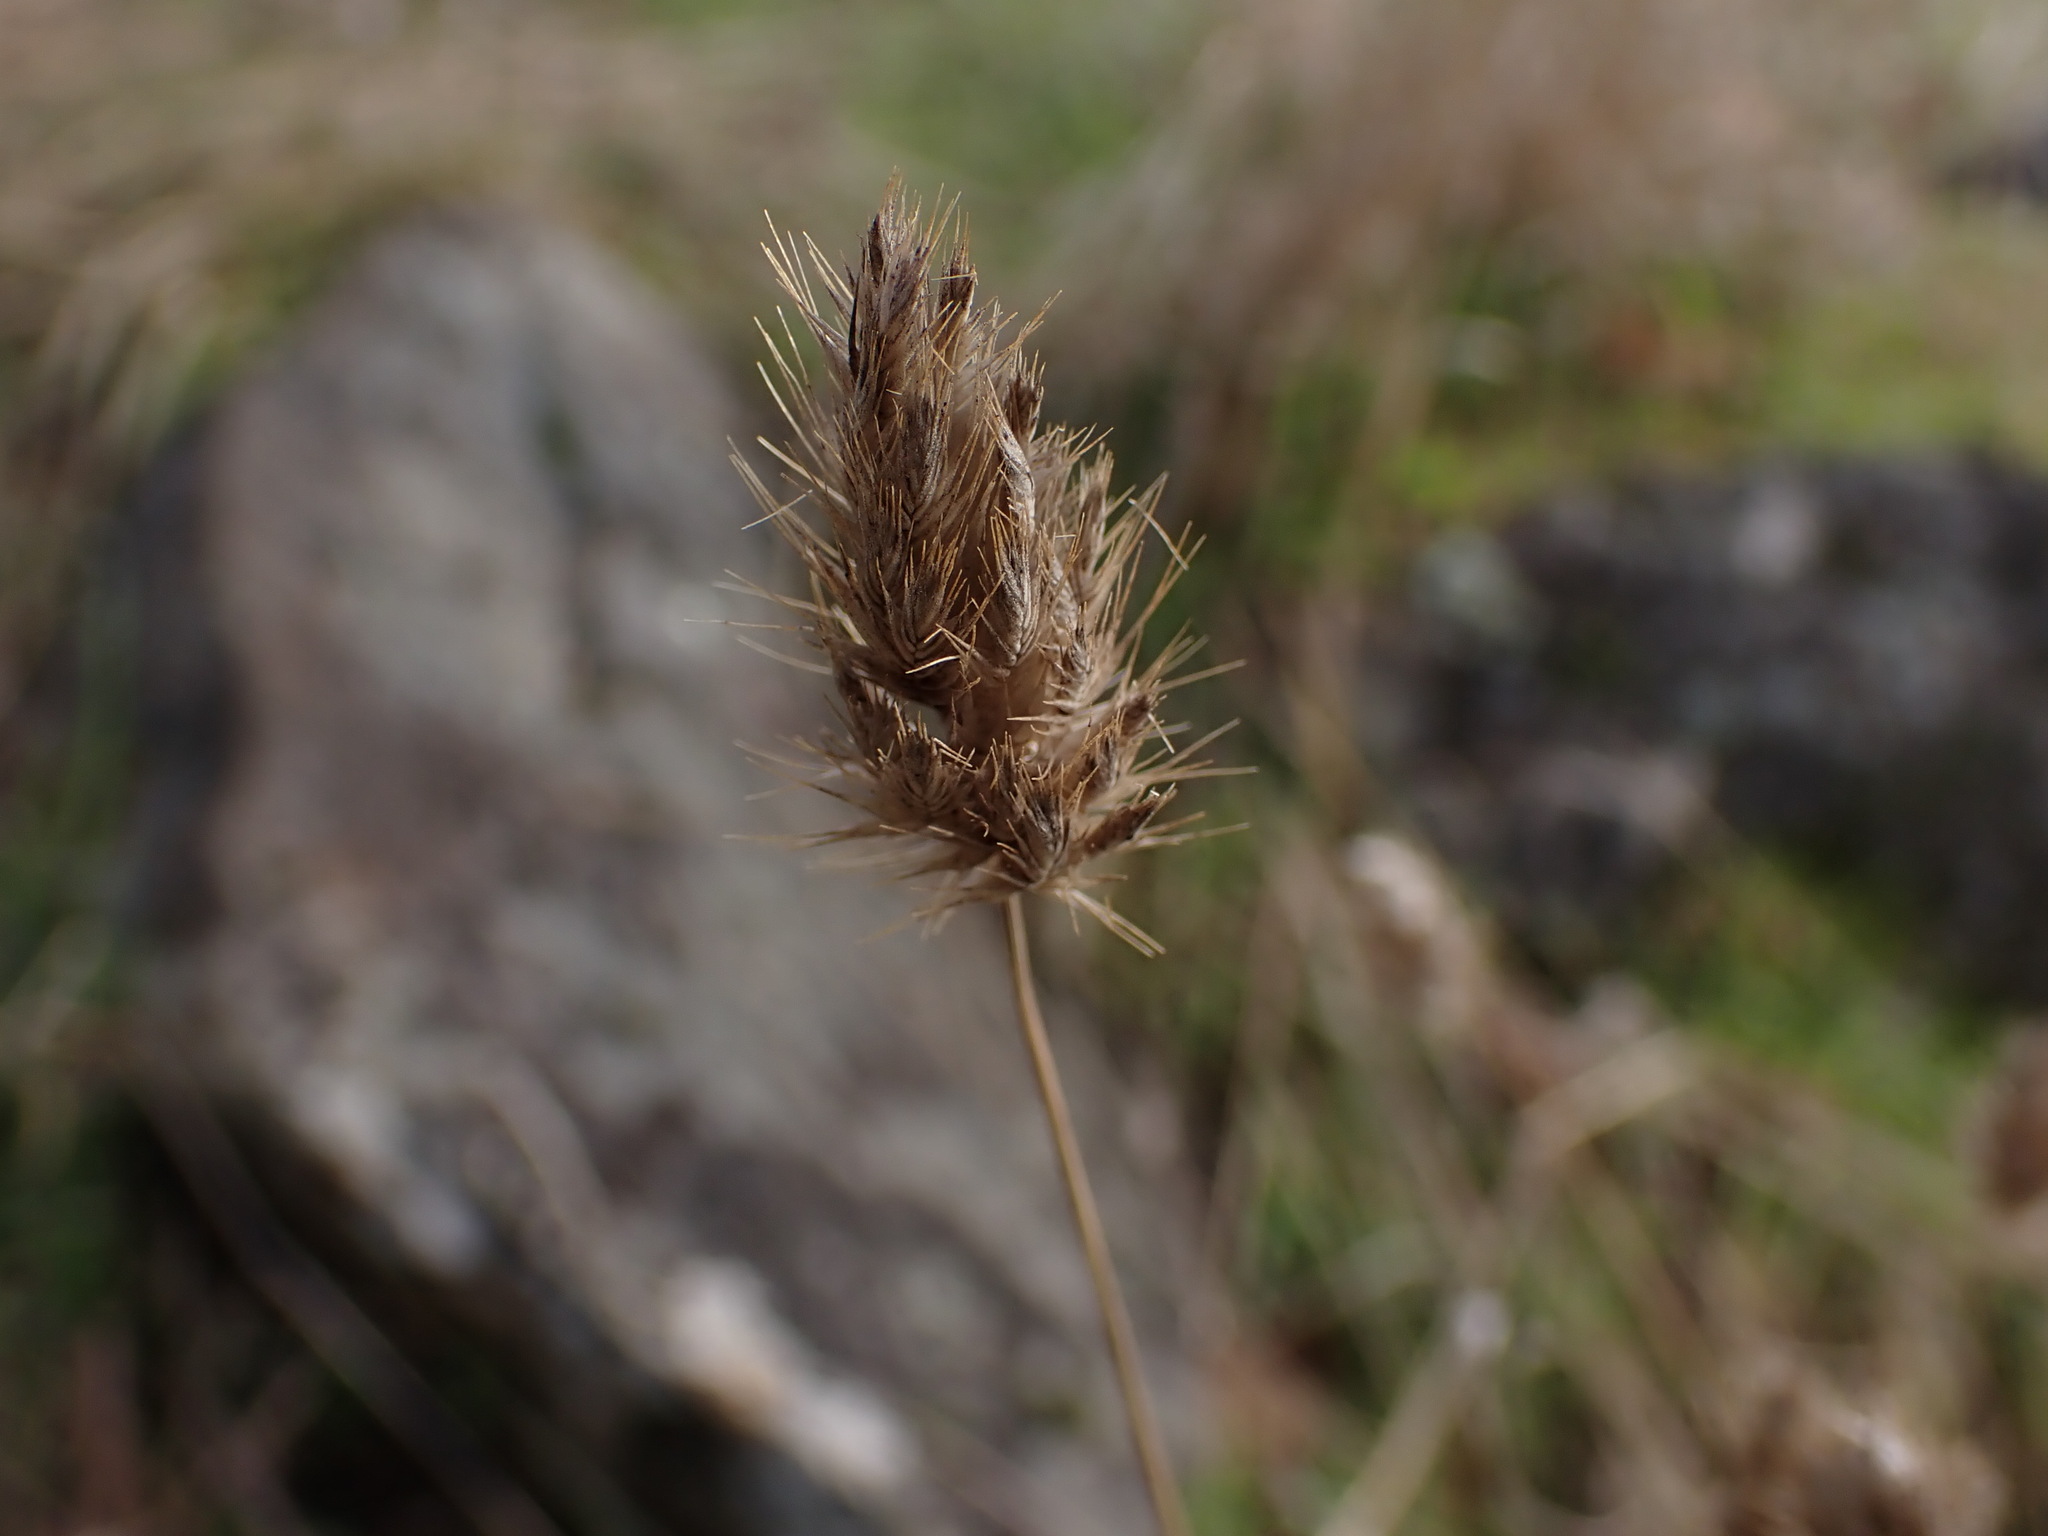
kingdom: Plantae
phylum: Tracheophyta
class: Liliopsida
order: Poales
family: Poaceae
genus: Cynosurus
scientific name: Cynosurus echinatus
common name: Rough dog's-tail
